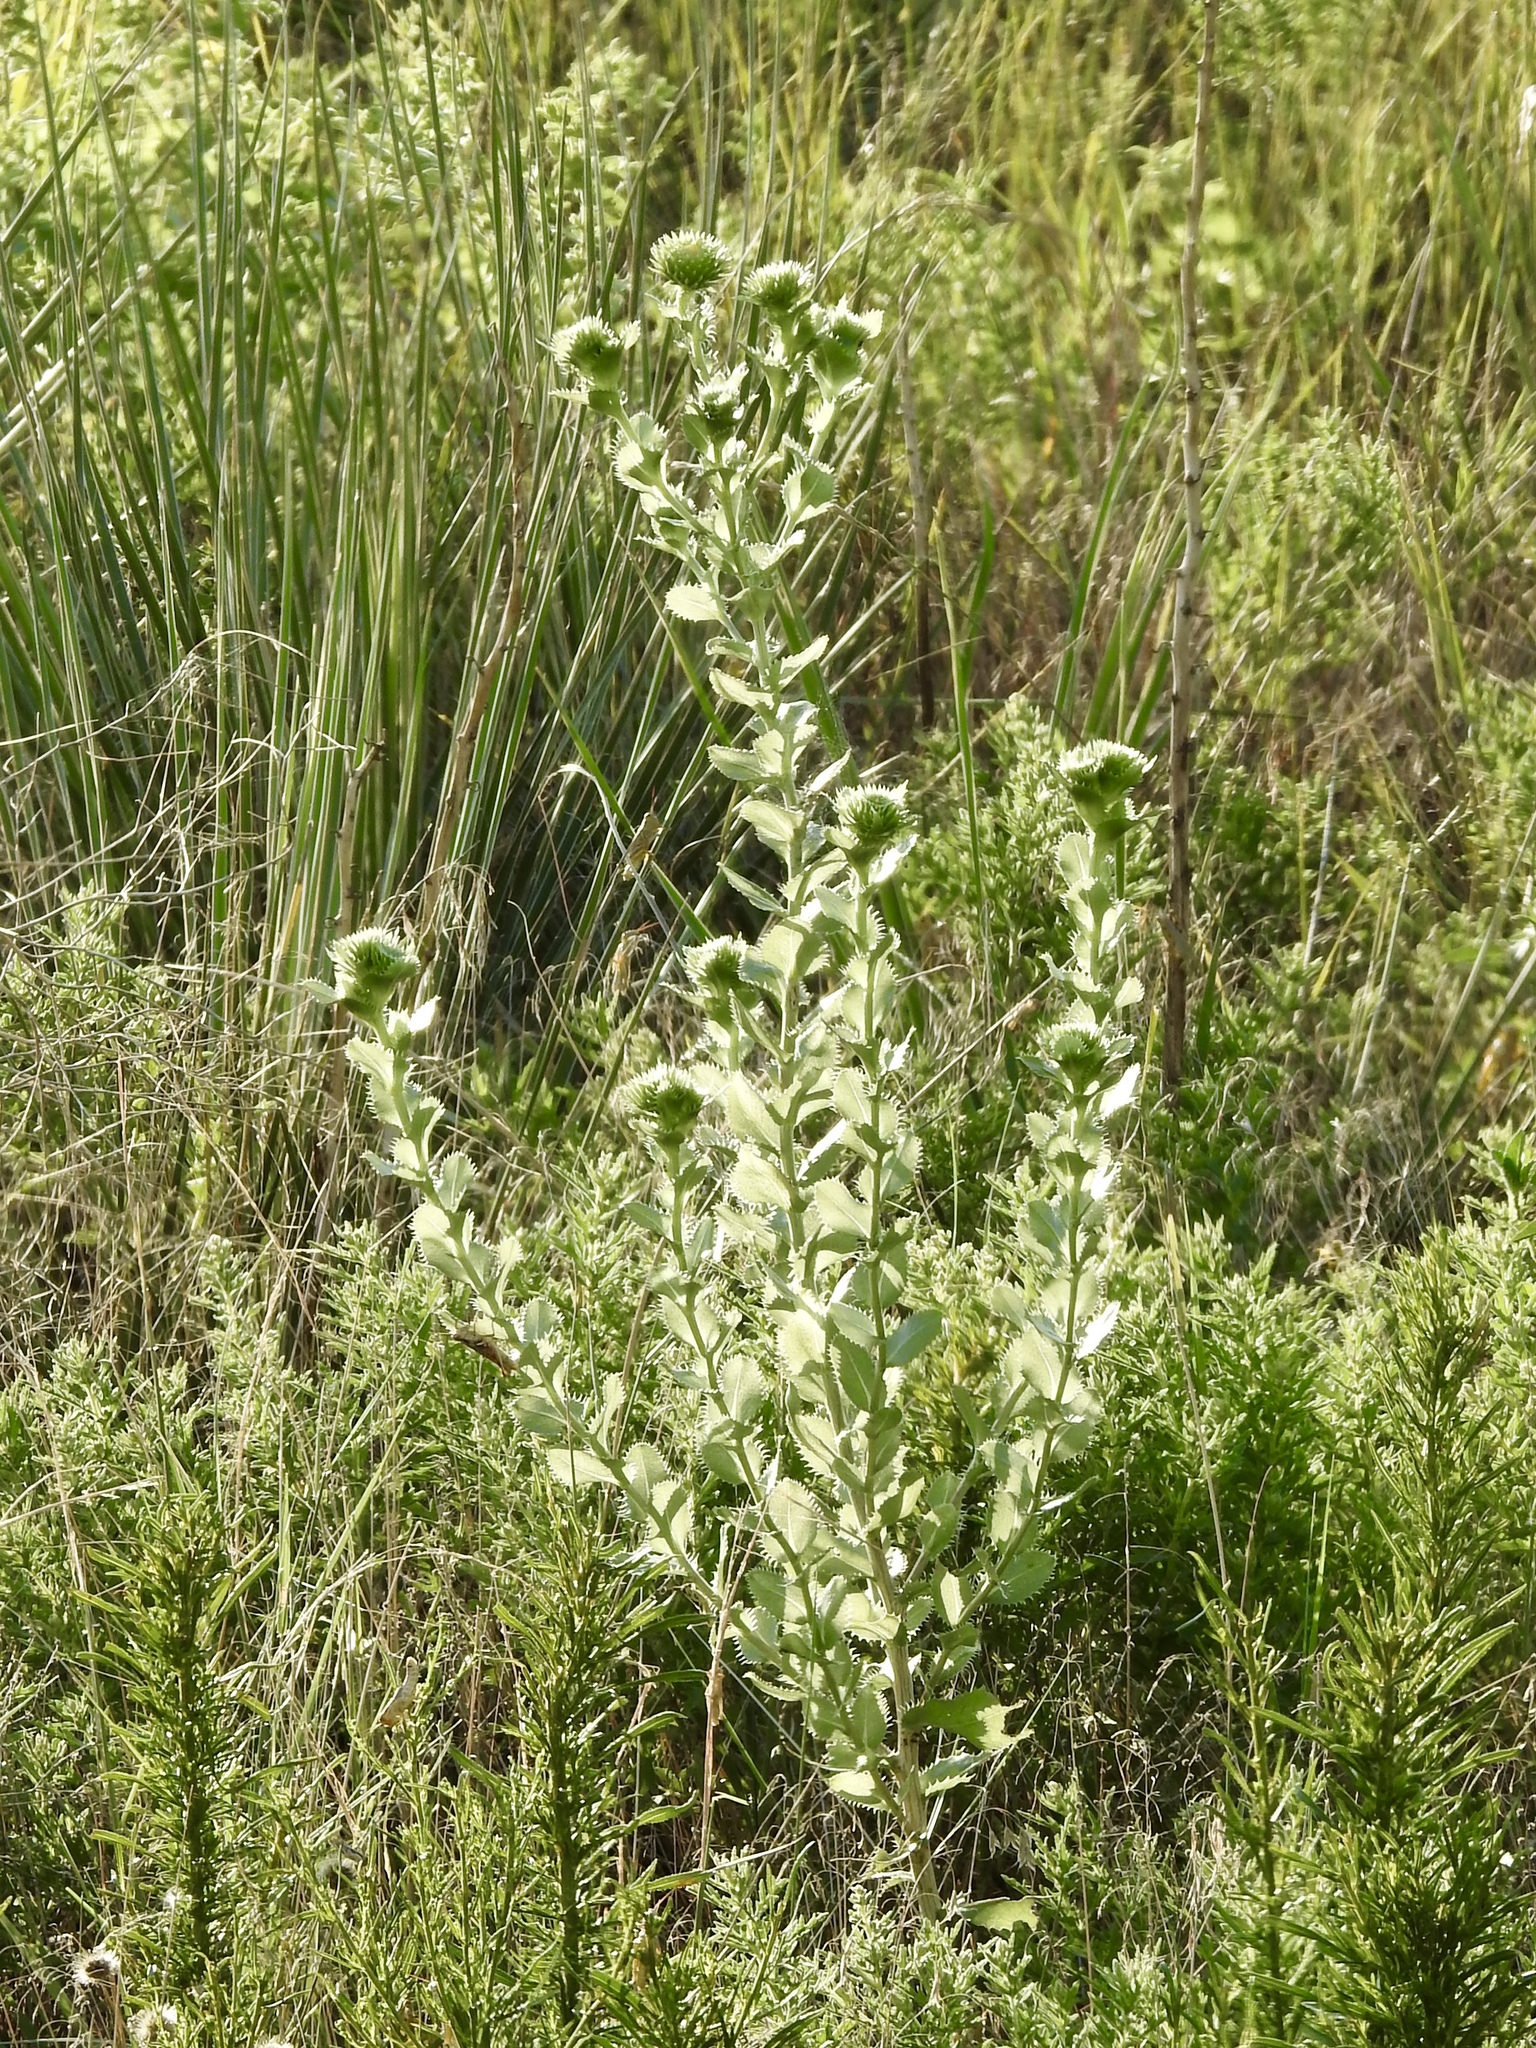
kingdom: Plantae
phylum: Tracheophyta
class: Magnoliopsida
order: Asterales
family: Asteraceae
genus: Grindelia
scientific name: Grindelia ciliata
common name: Goldenweed
